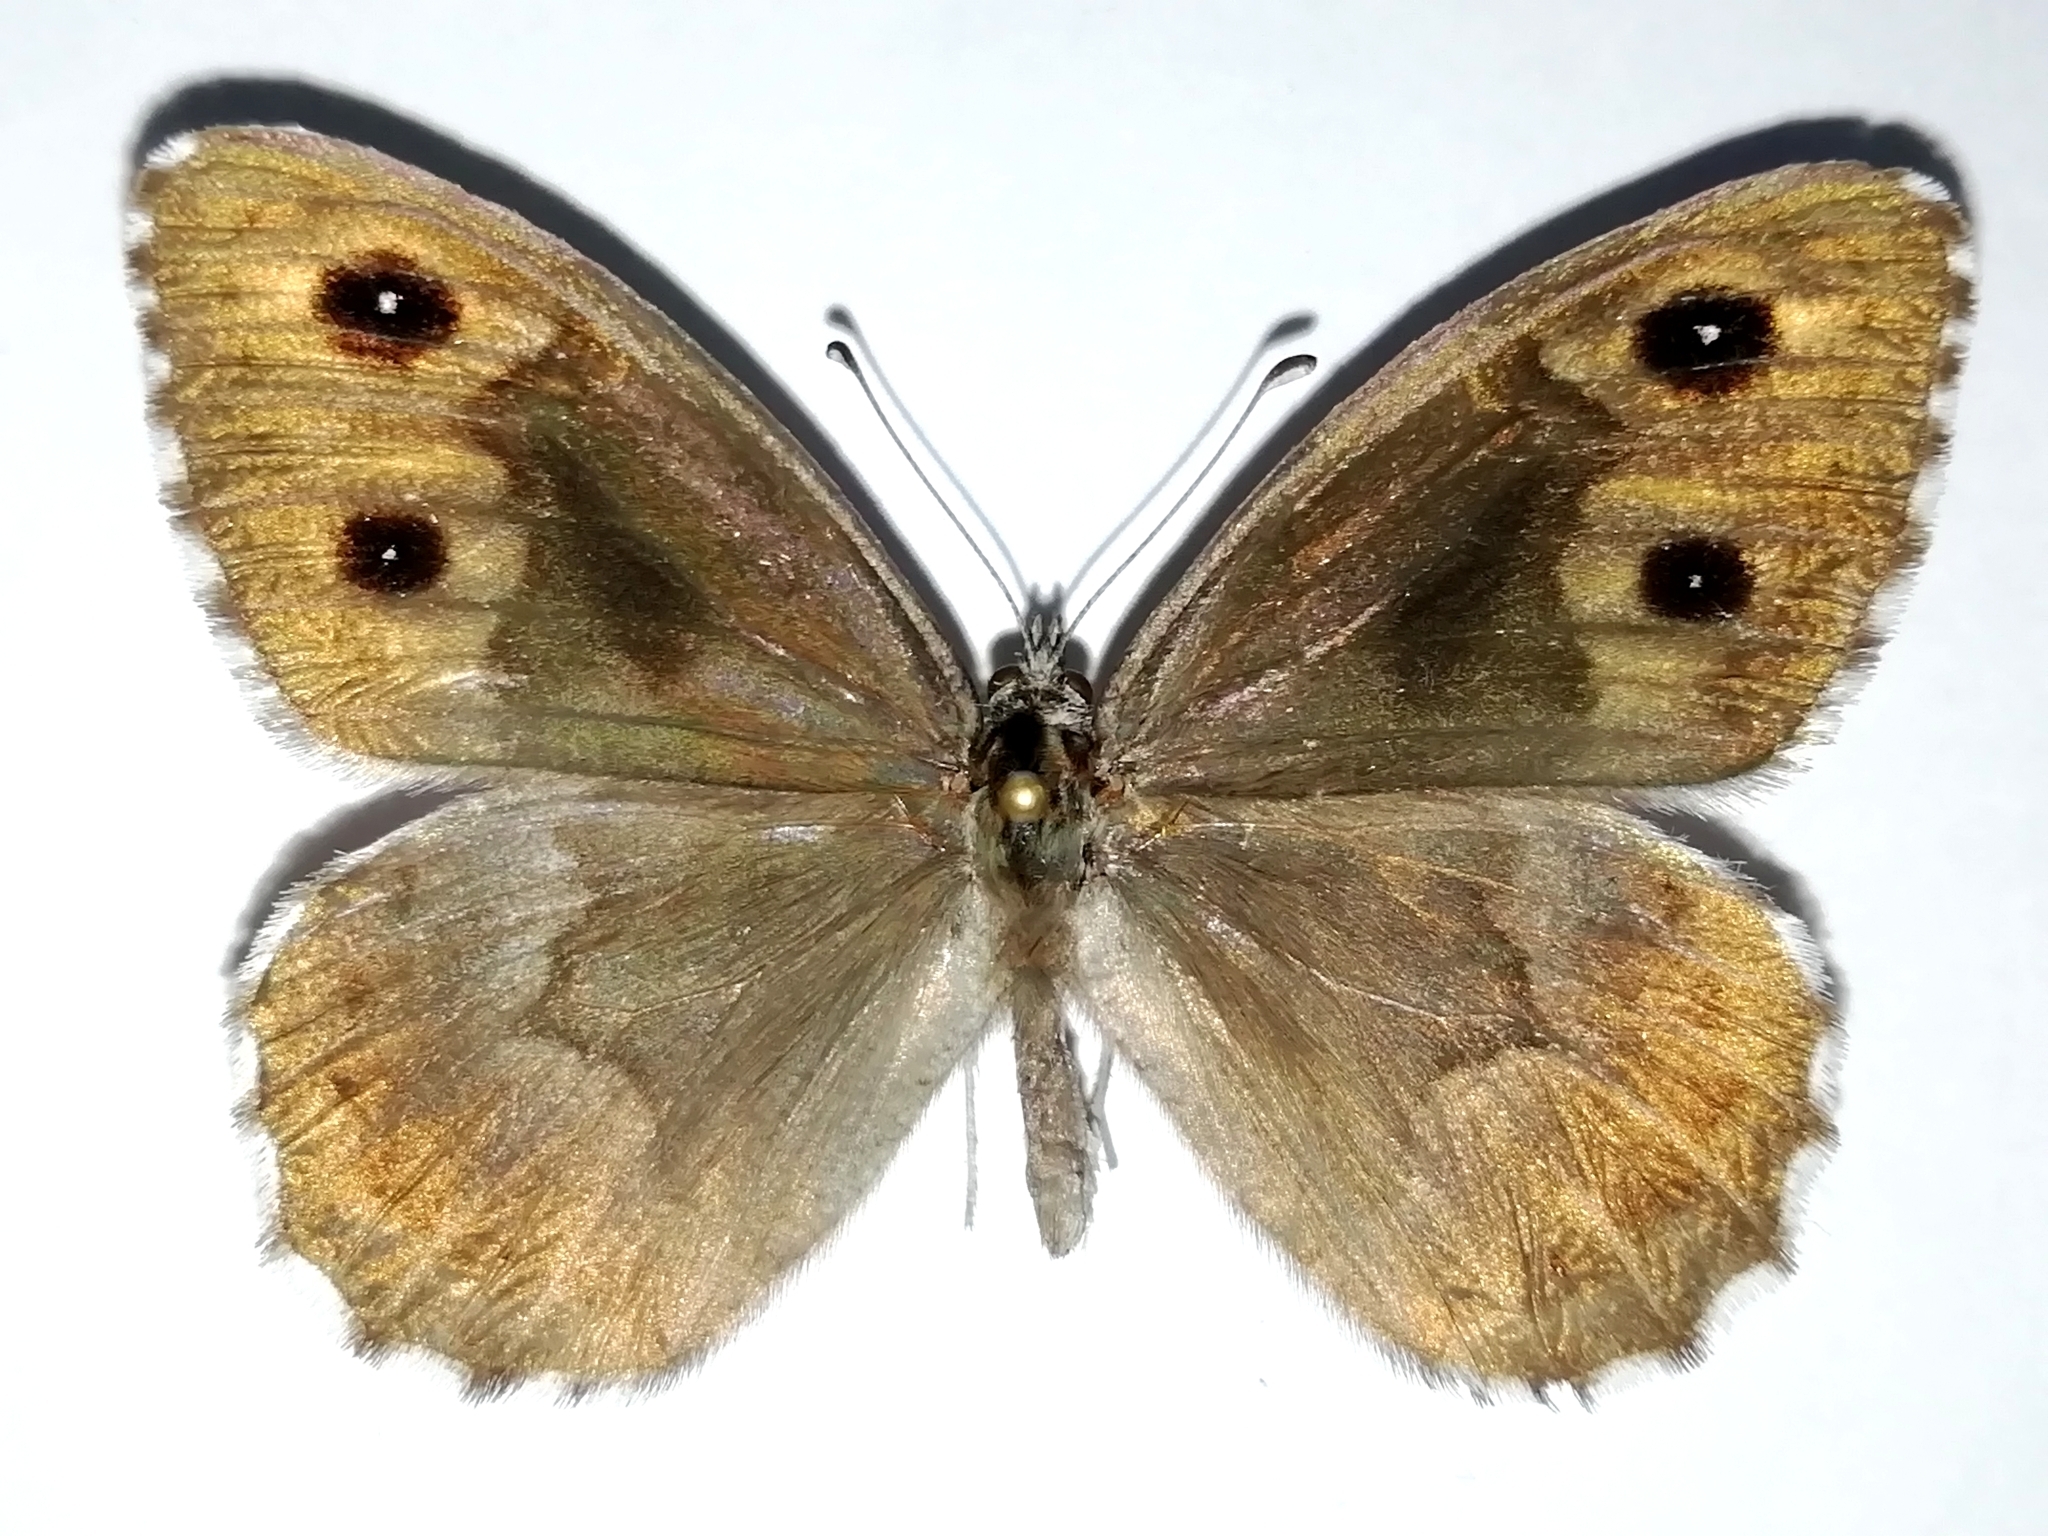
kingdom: Animalia
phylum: Arthropoda
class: Insecta
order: Lepidoptera
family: Nymphalidae
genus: Hipparchia
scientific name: Hipparchia autonoe
